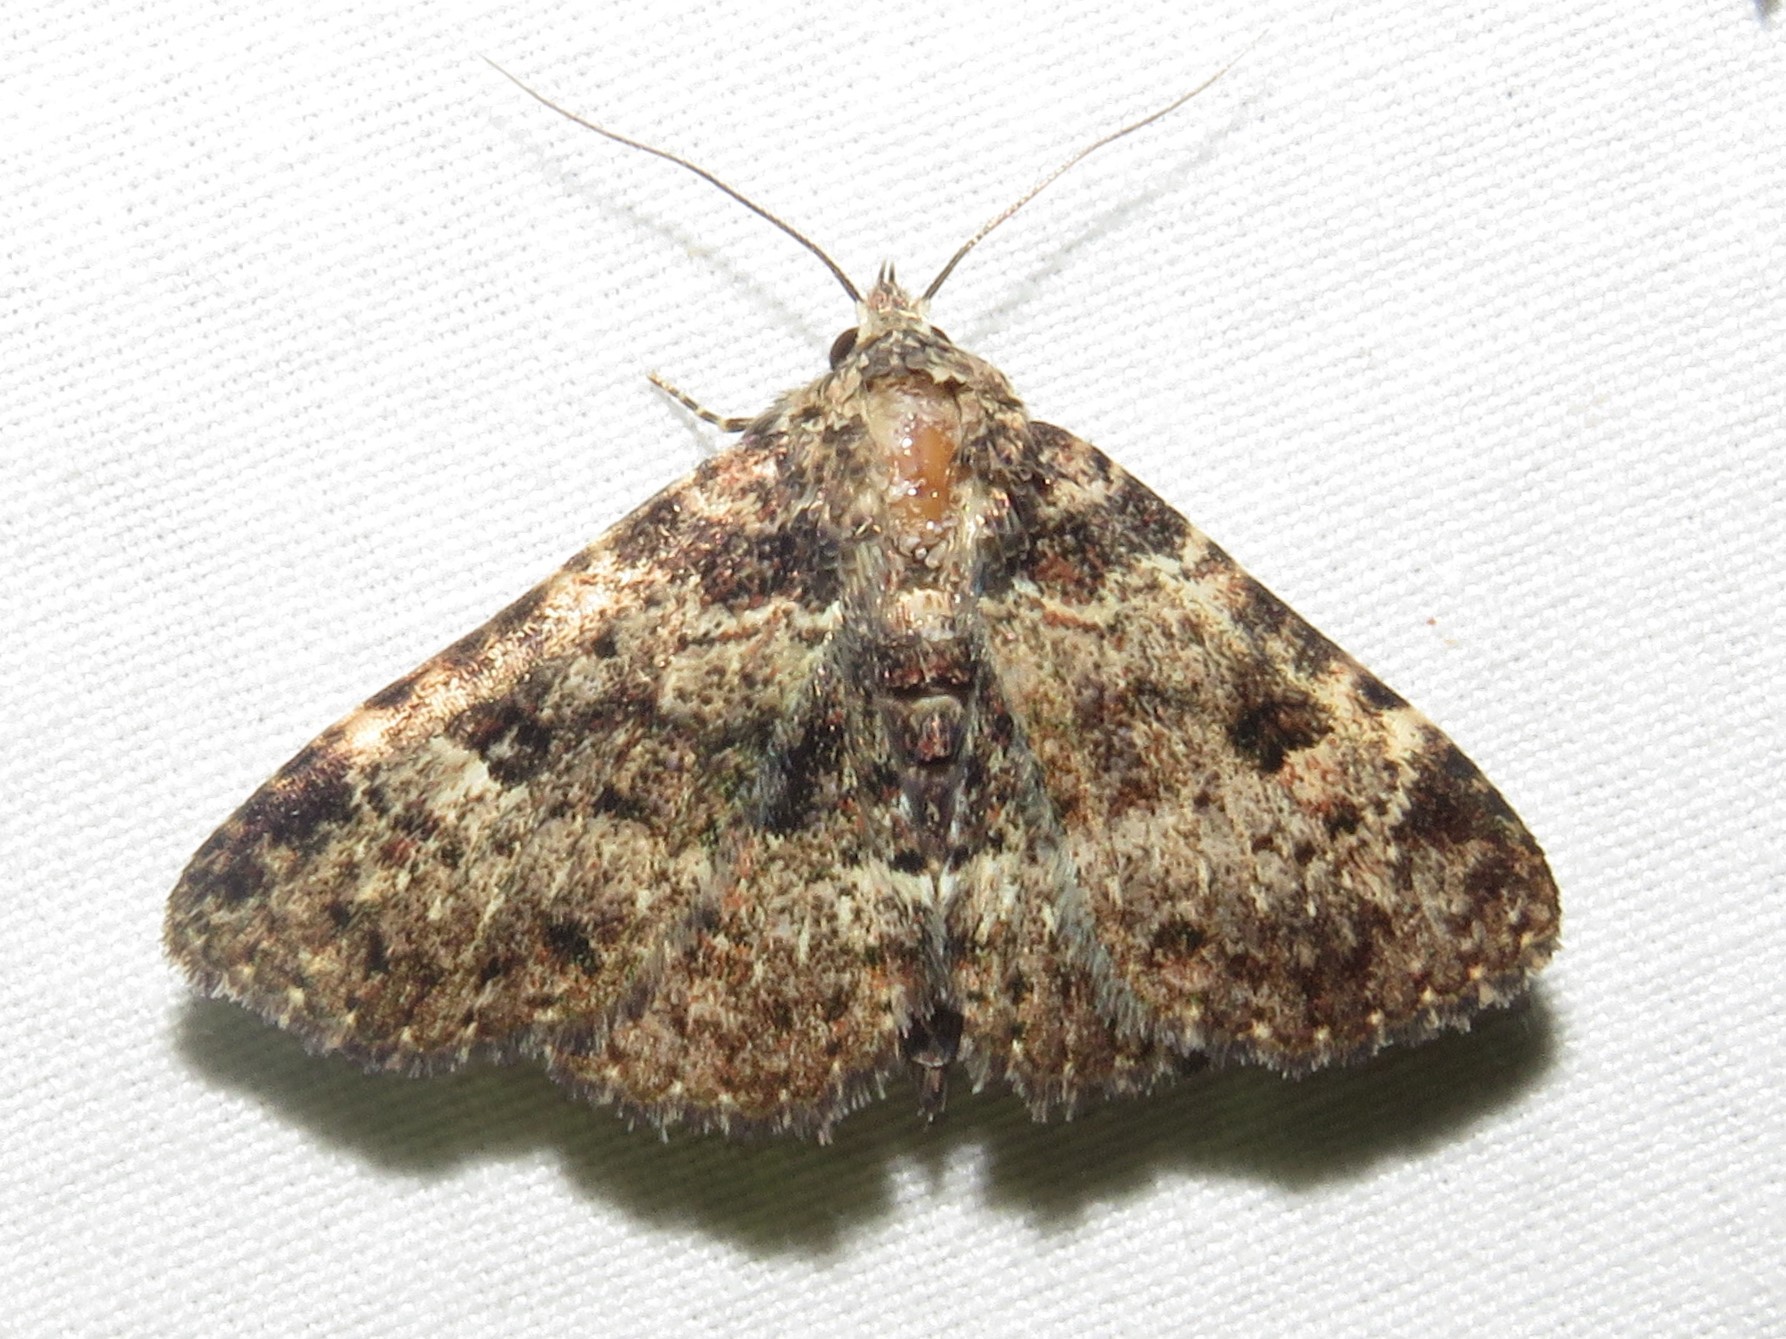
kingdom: Animalia
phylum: Arthropoda
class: Insecta
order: Lepidoptera
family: Erebidae
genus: Metalectra
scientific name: Metalectra discalis
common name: Common fungus moth
